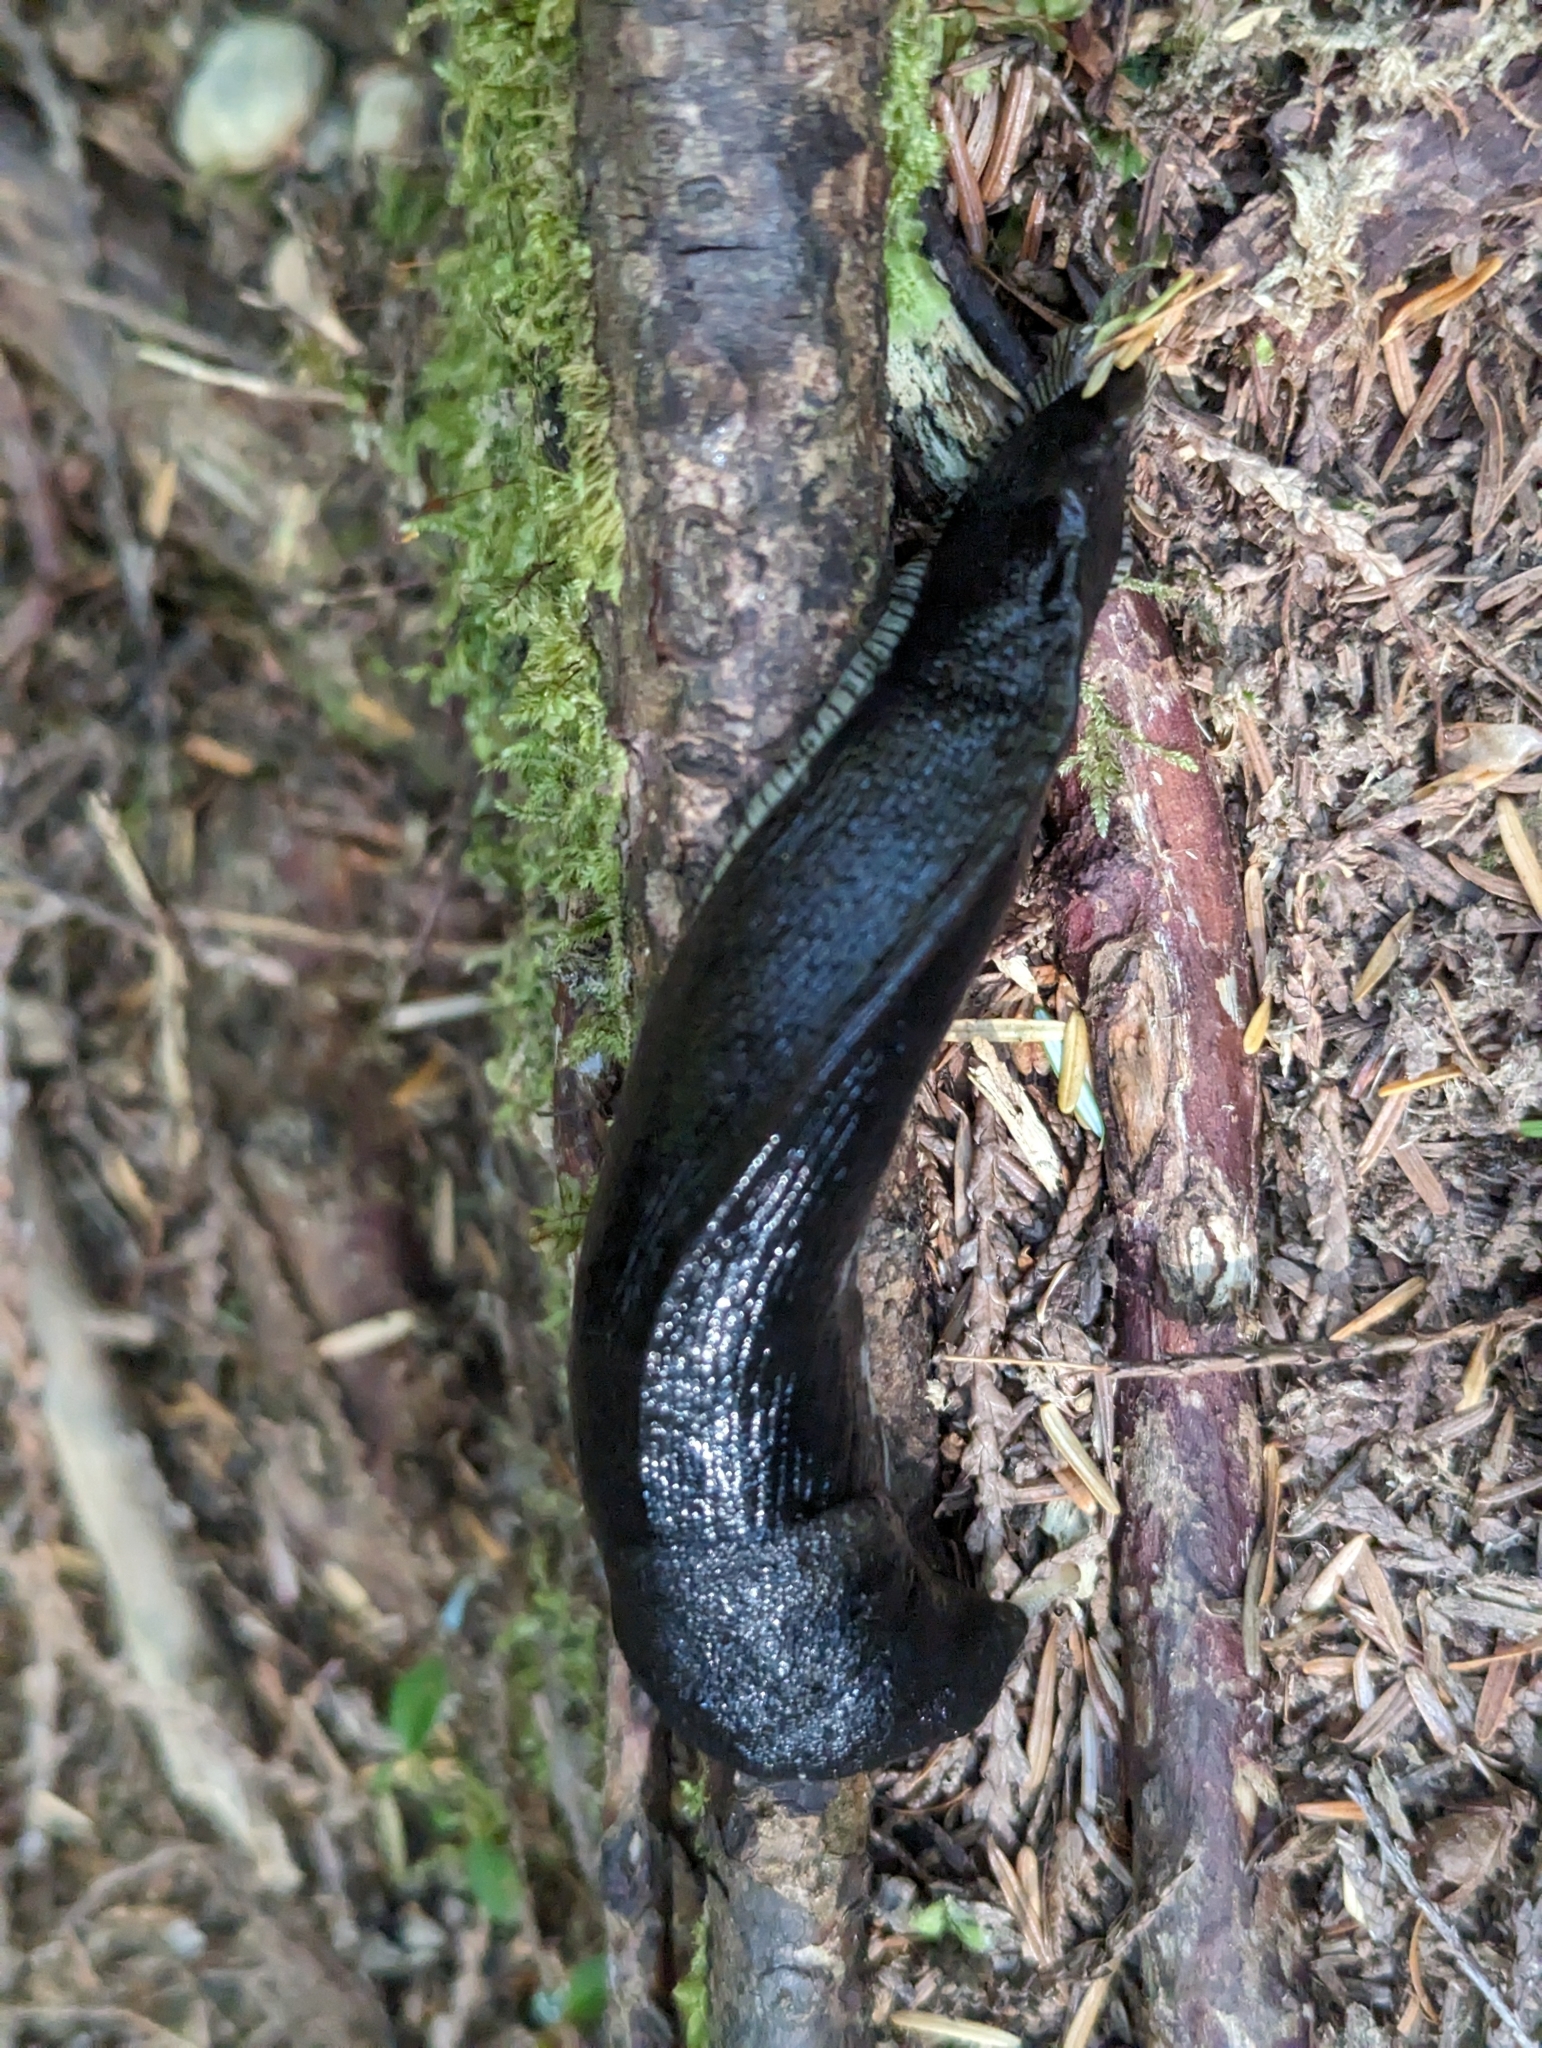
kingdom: Animalia
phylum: Mollusca
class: Gastropoda
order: Stylommatophora
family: Ariolimacidae
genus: Ariolimax
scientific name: Ariolimax columbianus
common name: Pacific banana slug
